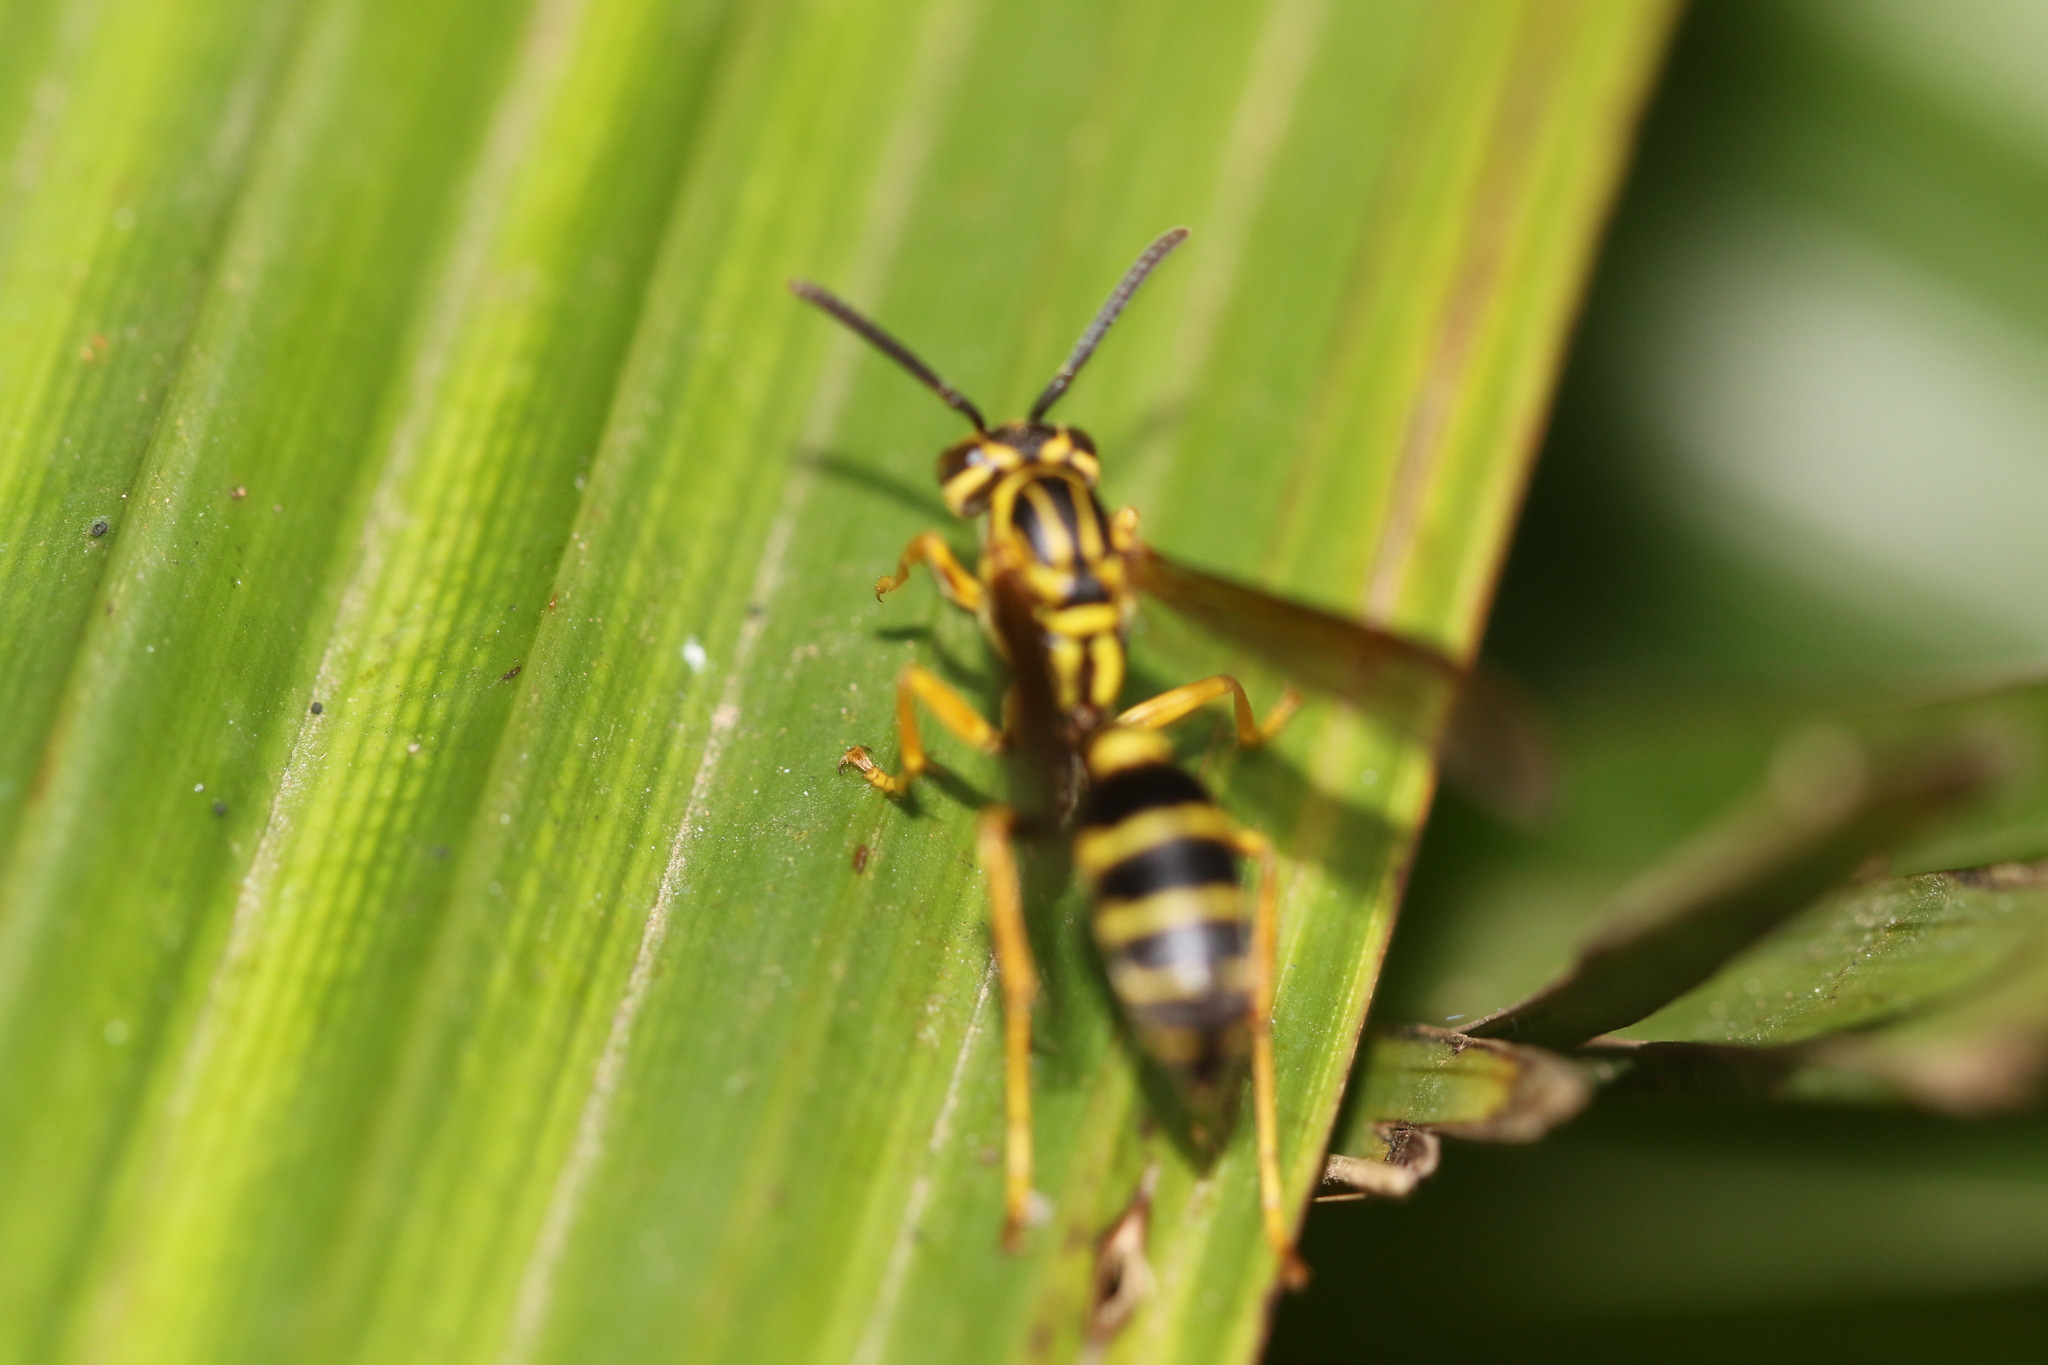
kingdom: Animalia
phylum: Arthropoda
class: Insecta
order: Hymenoptera
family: Vespidae
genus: Agelaia
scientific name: Agelaia multipicta
